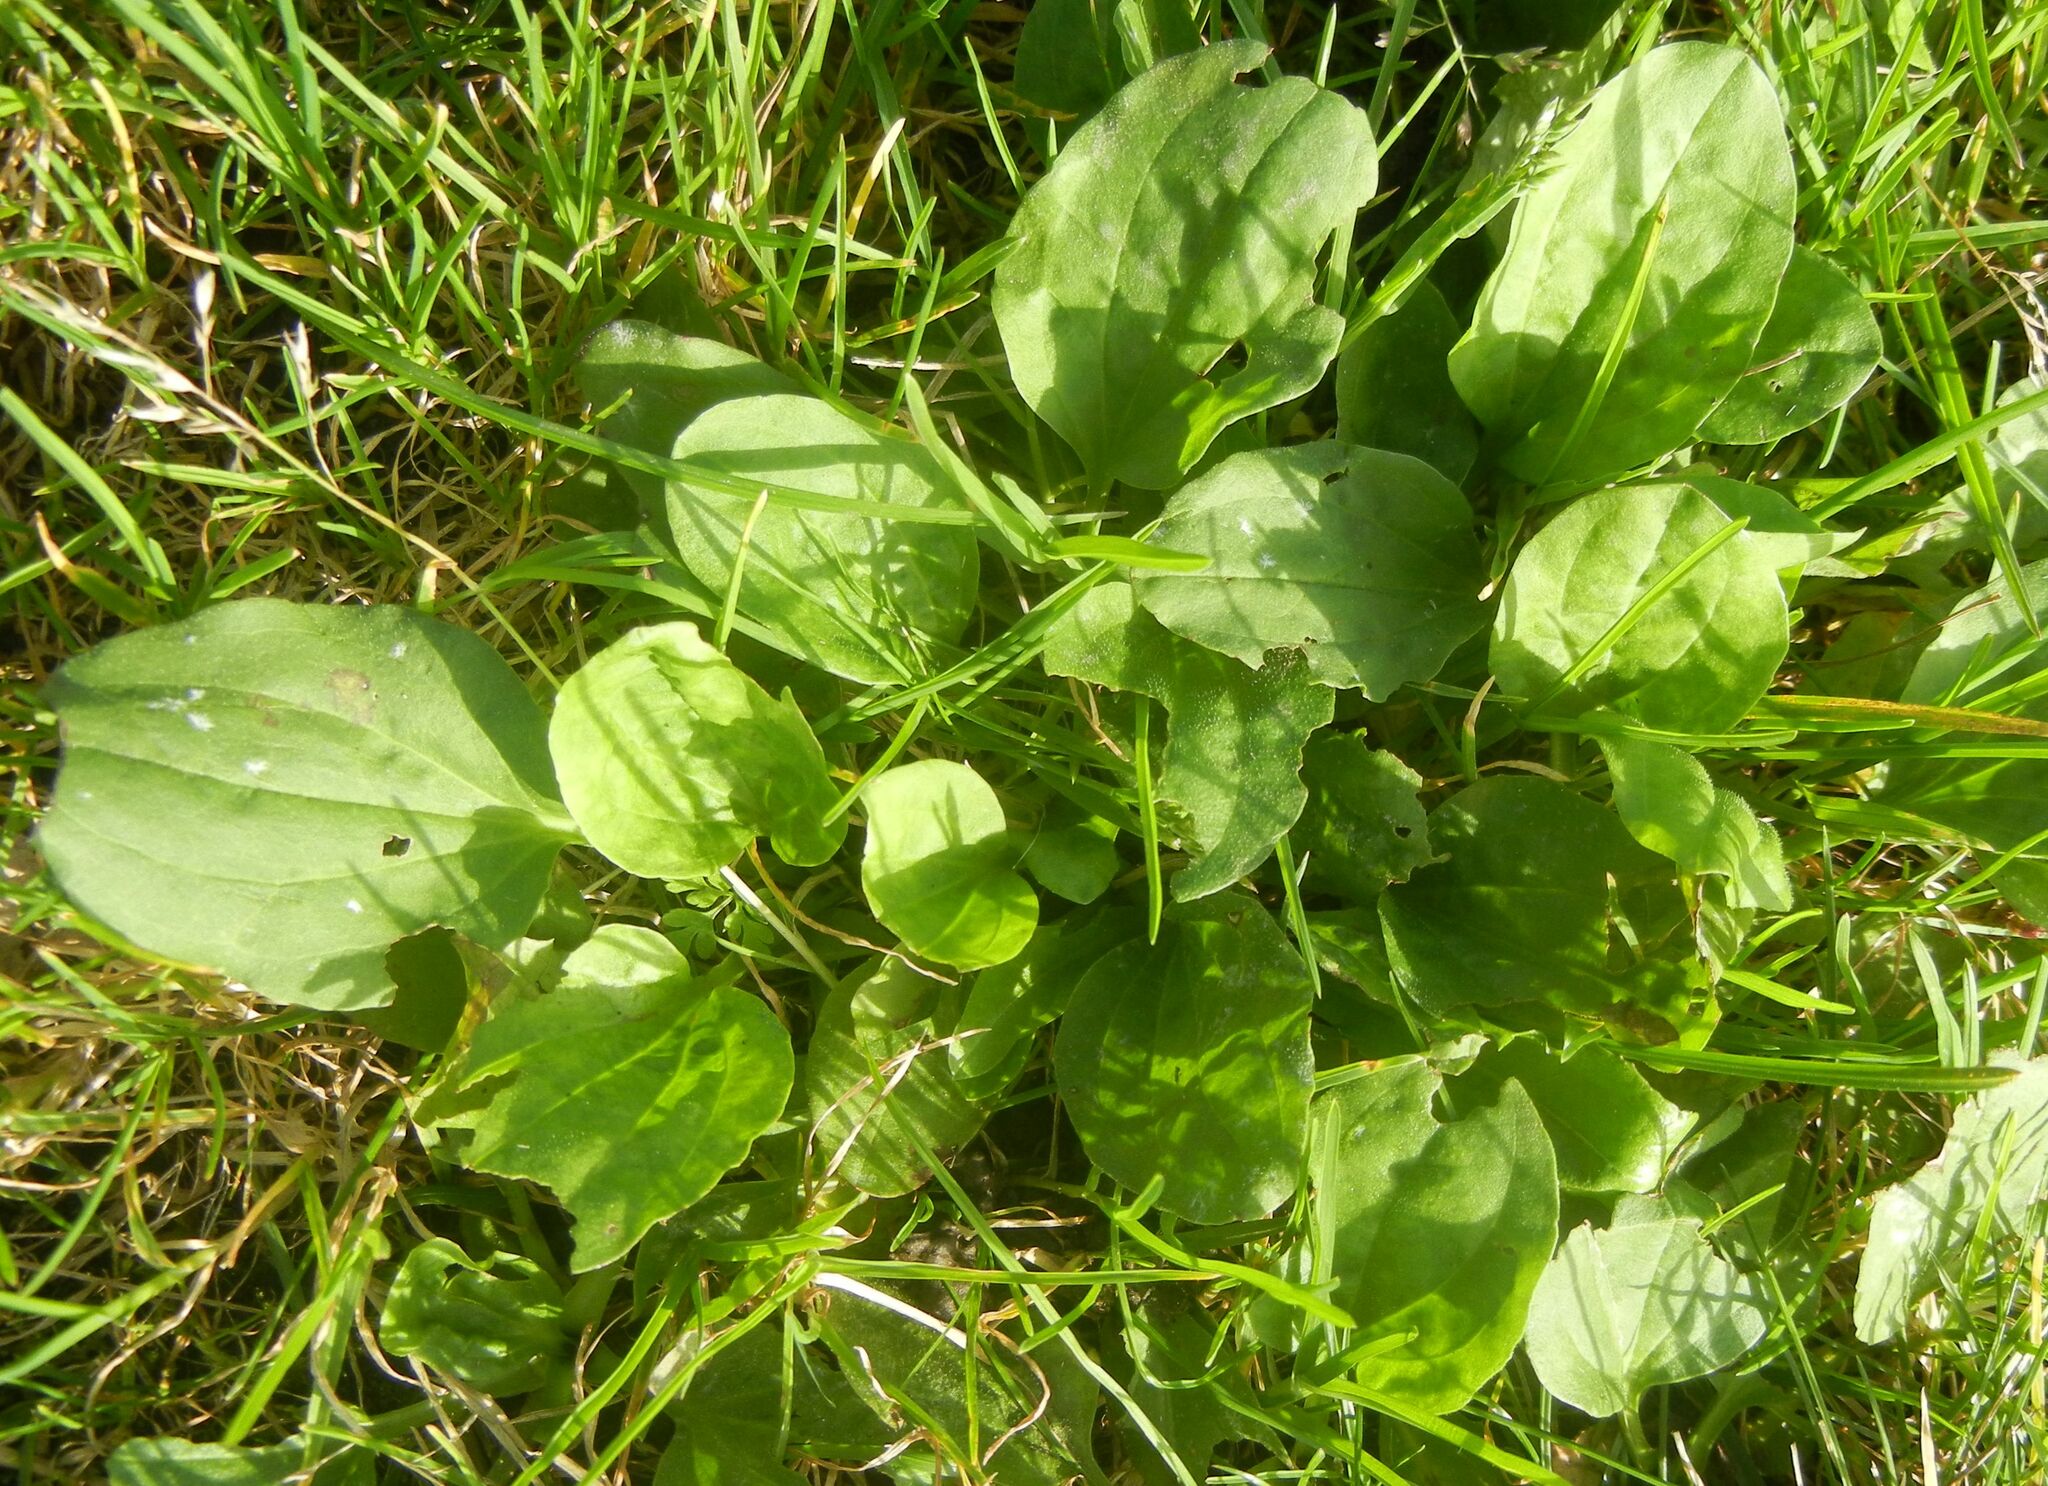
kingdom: Plantae
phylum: Tracheophyta
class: Magnoliopsida
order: Lamiales
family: Plantaginaceae
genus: Plantago
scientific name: Plantago major
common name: Common plantain
